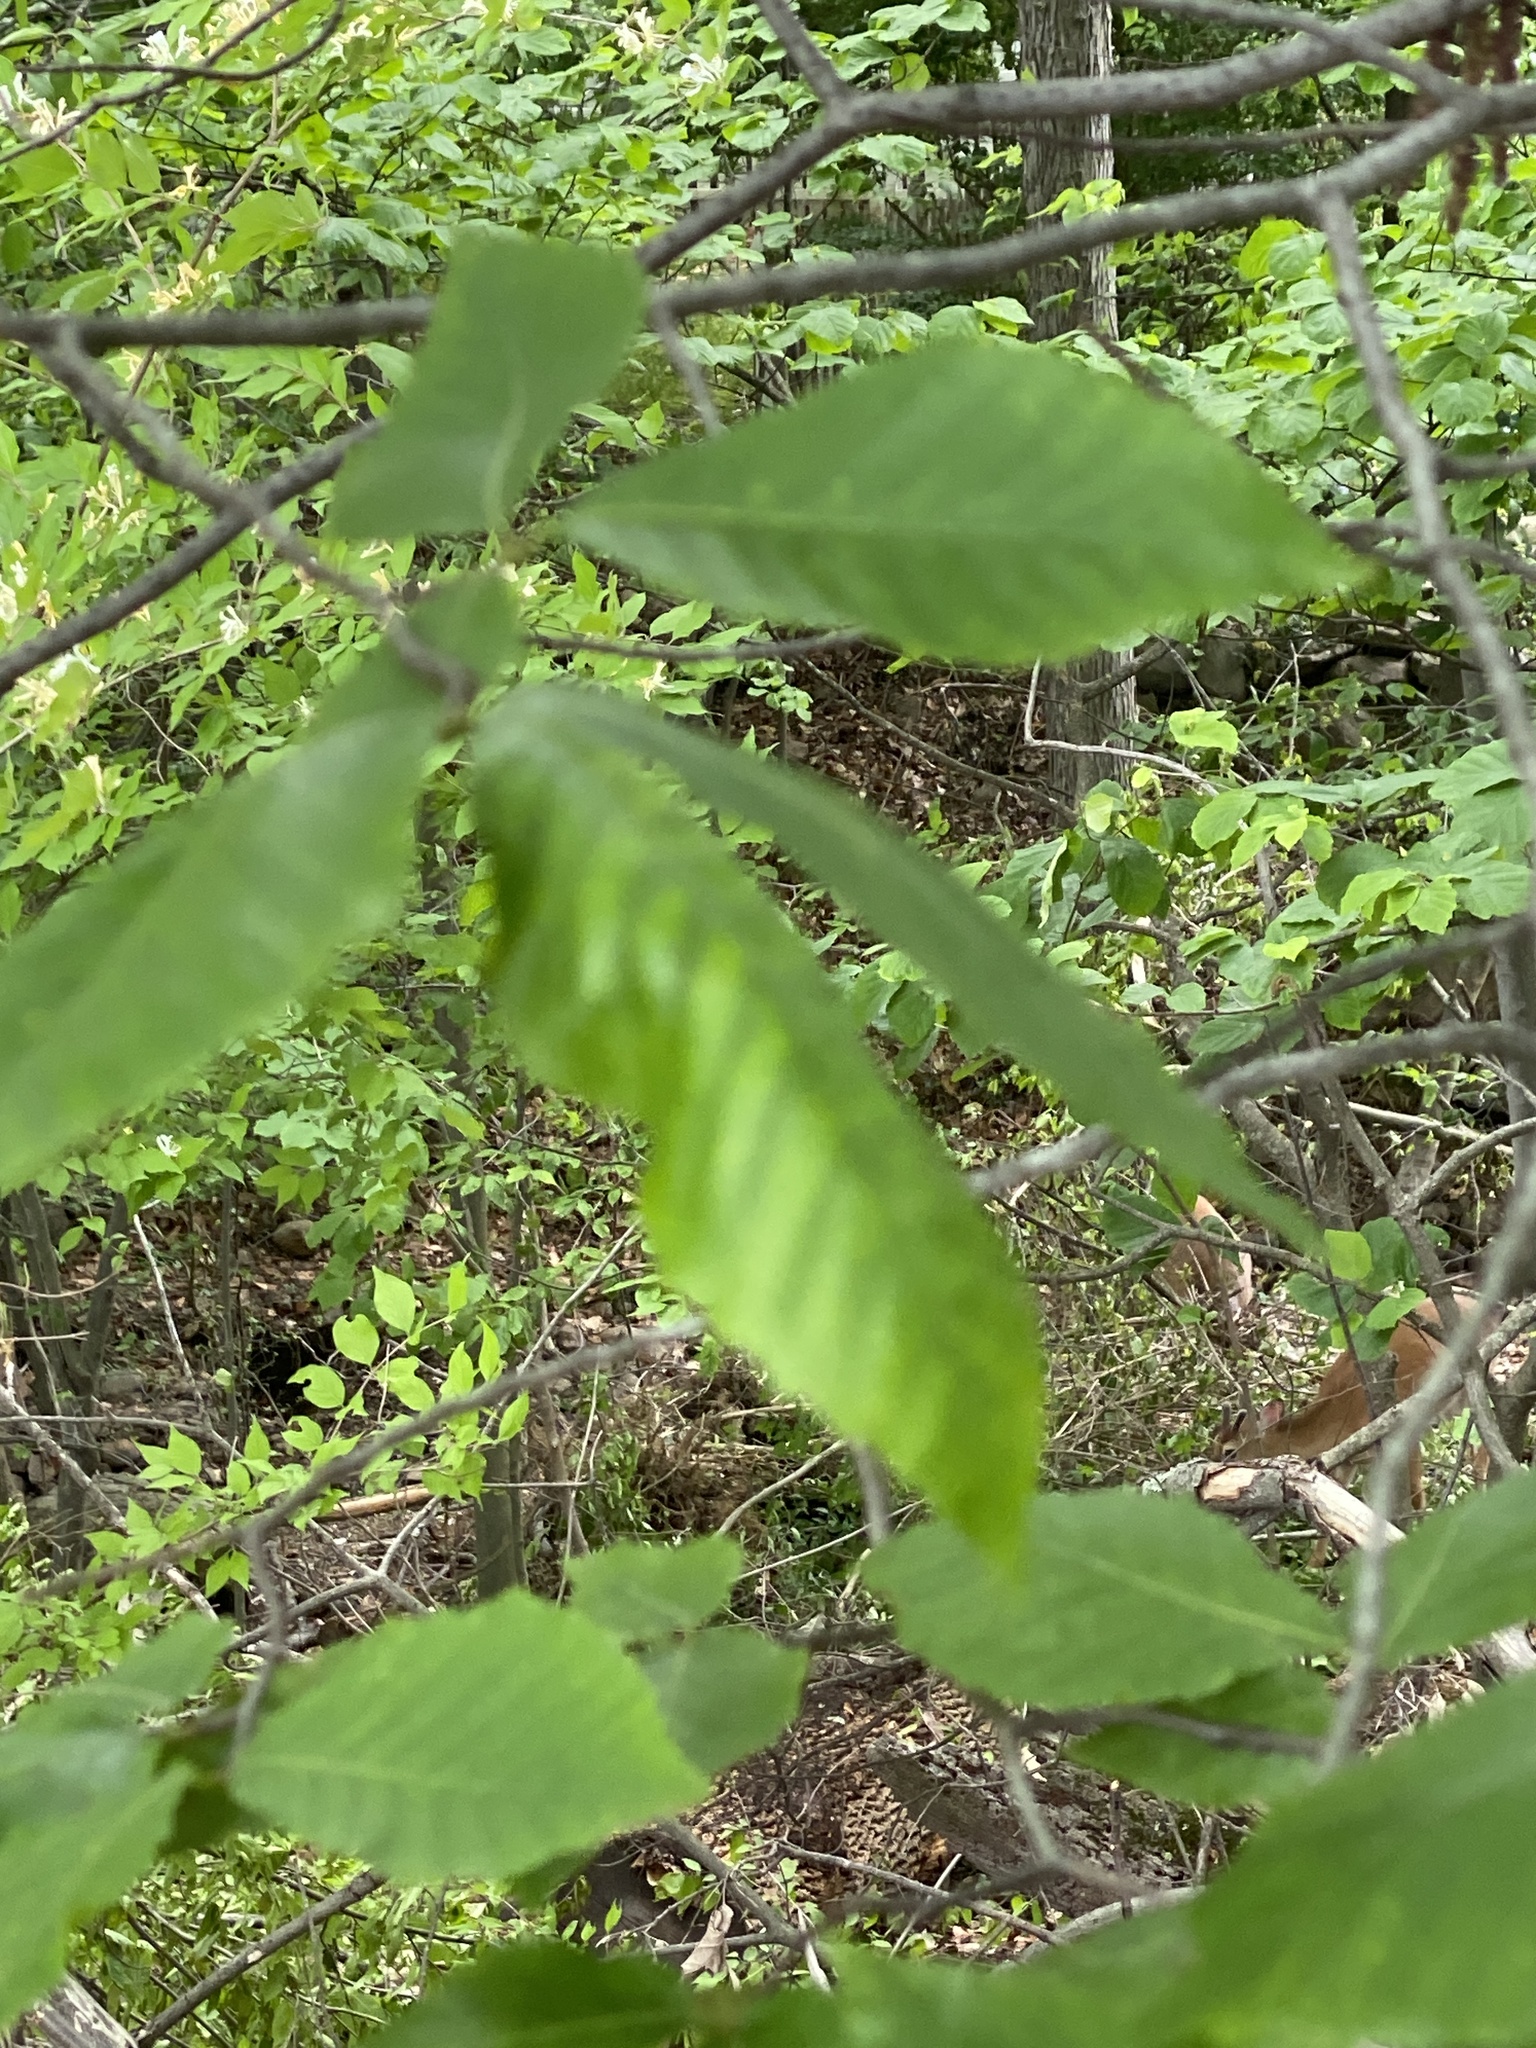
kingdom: Animalia
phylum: Nematoda
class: Chromadorea
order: Rhabditida
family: Anguinidae
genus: Litylenchus
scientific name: Litylenchus crenatae
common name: Beech leaf disease
